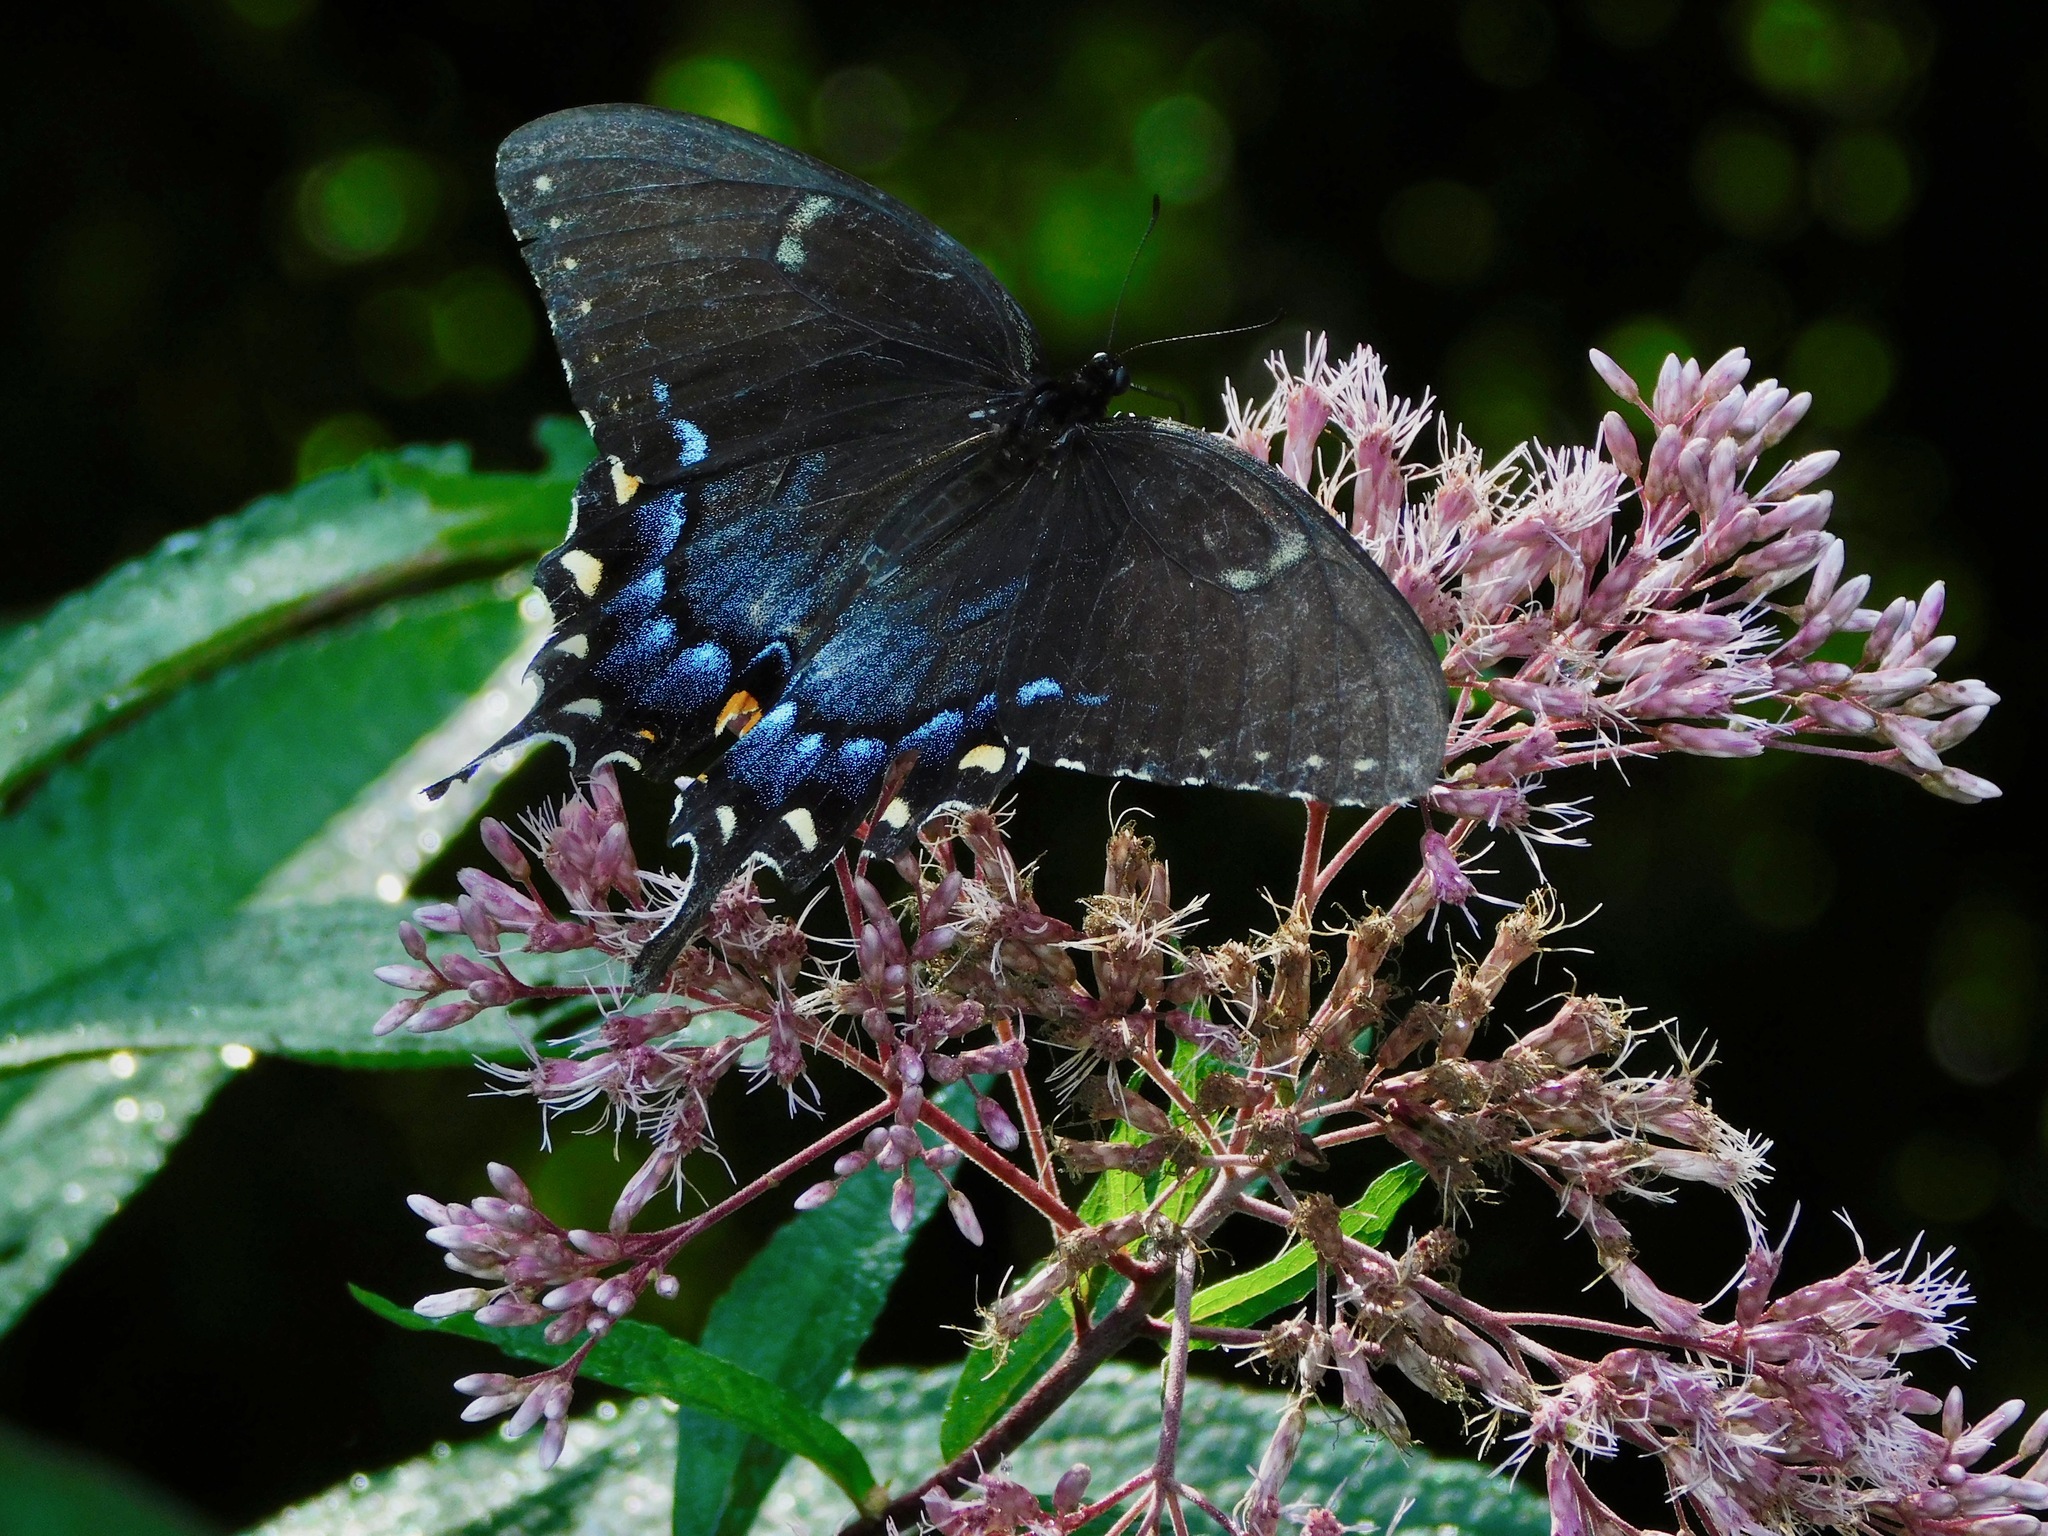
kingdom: Animalia
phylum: Arthropoda
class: Insecta
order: Lepidoptera
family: Papilionidae
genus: Papilio
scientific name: Papilio glaucus
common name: Tiger swallowtail
